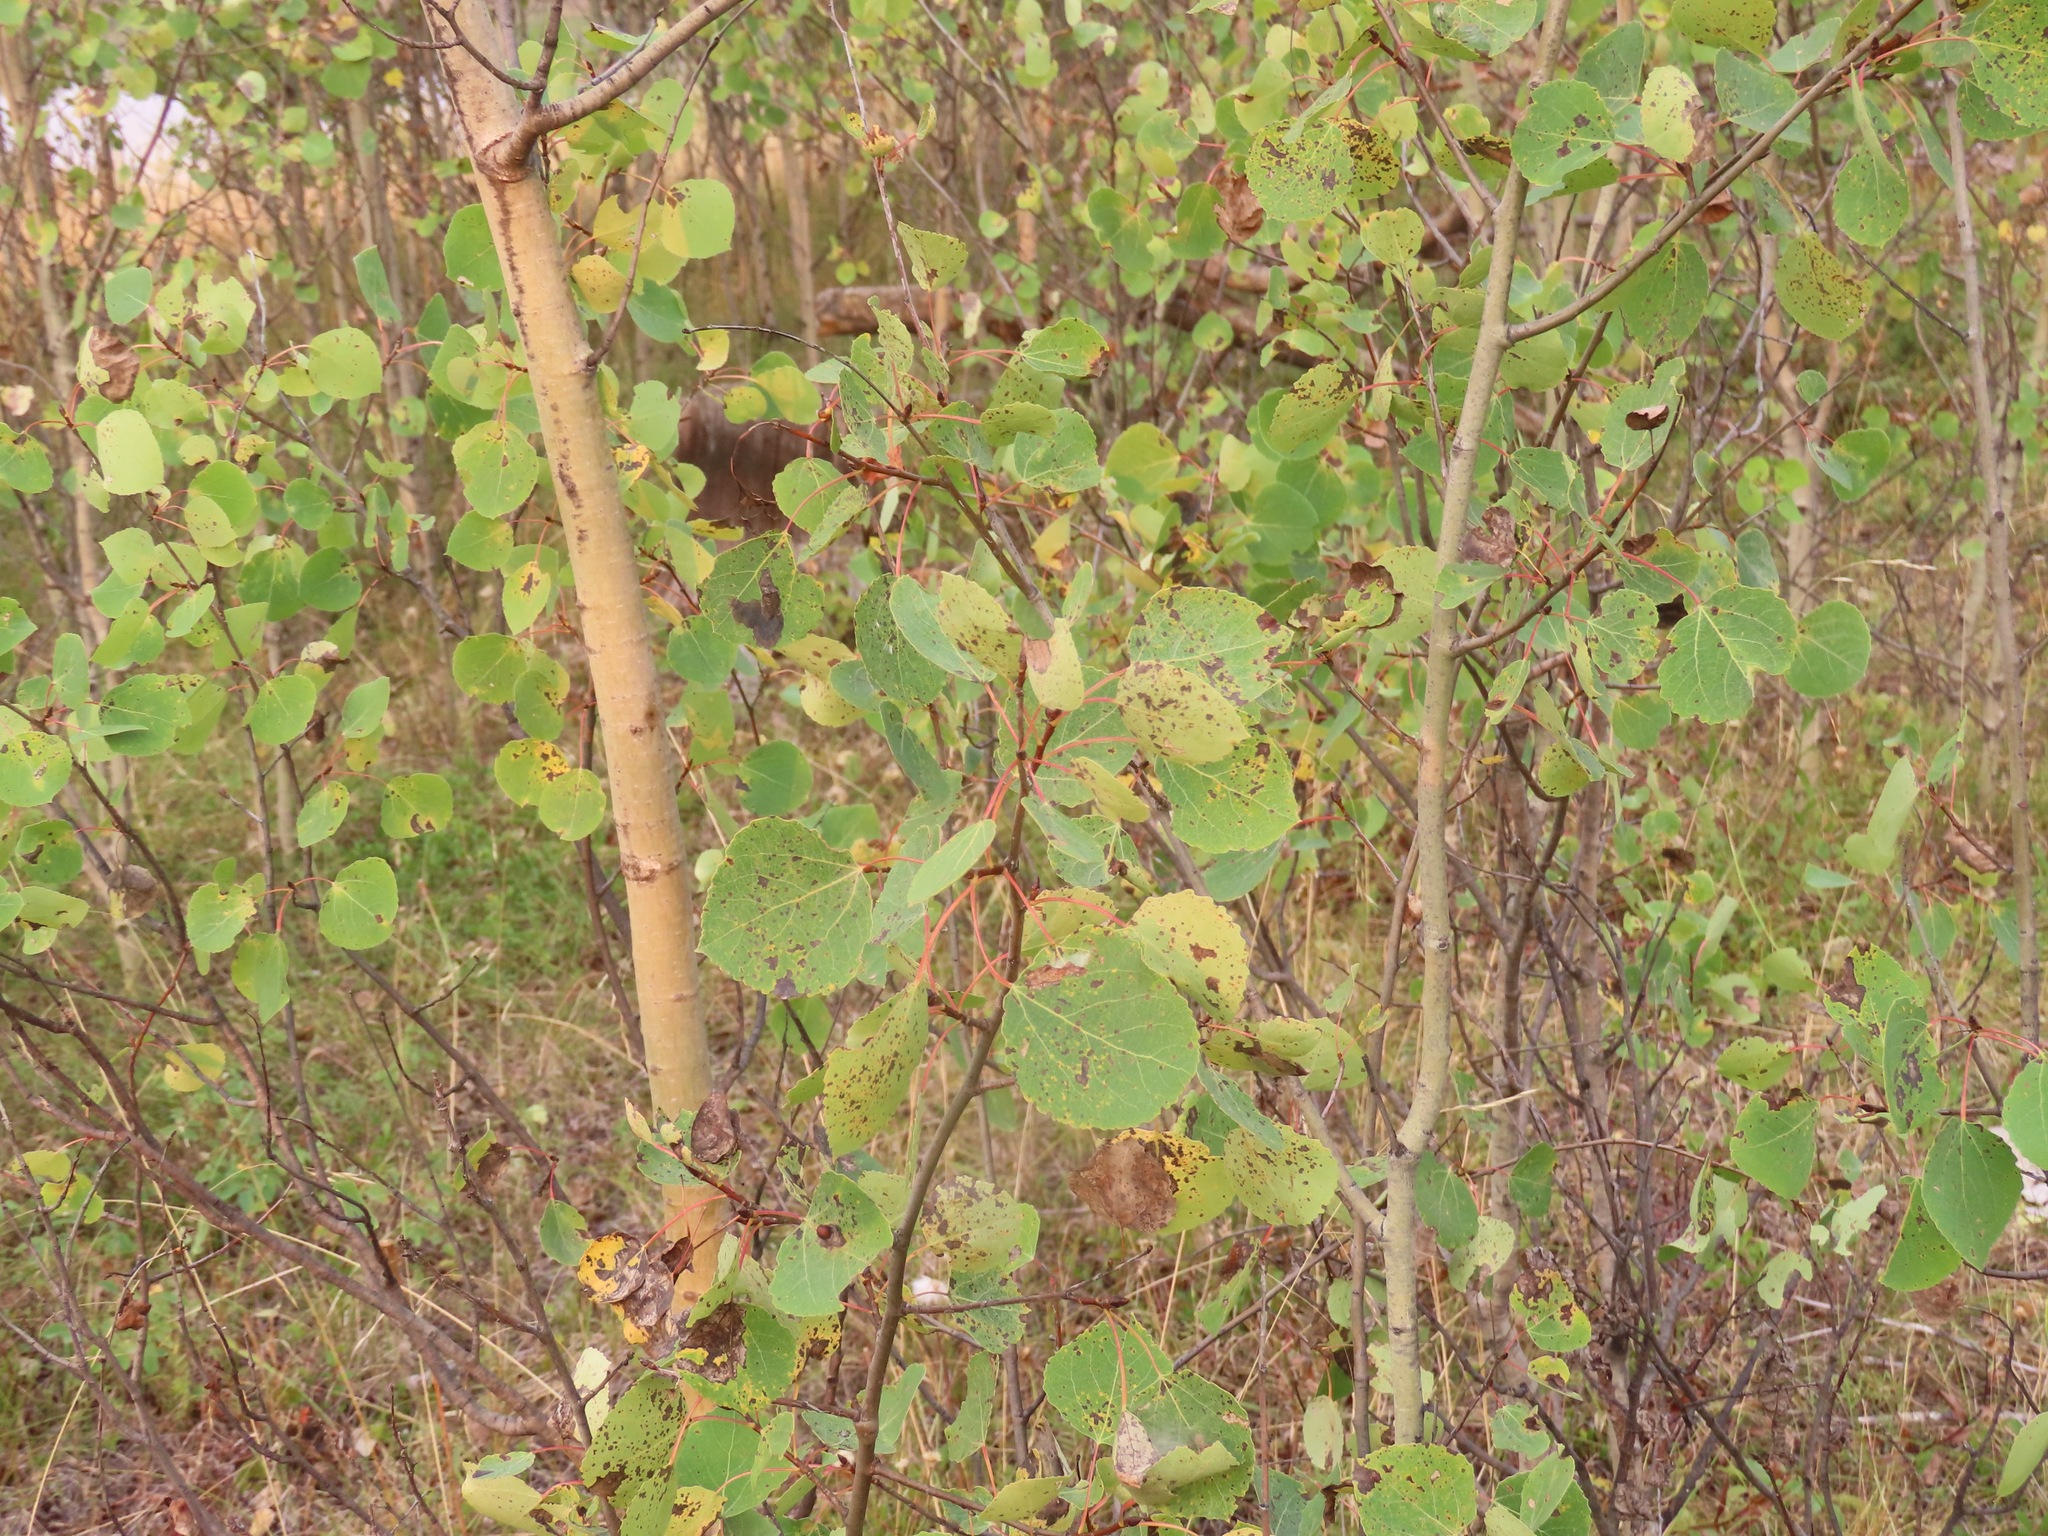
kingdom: Plantae
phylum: Tracheophyta
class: Magnoliopsida
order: Malpighiales
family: Salicaceae
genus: Populus
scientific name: Populus tremuloides
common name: Quaking aspen
